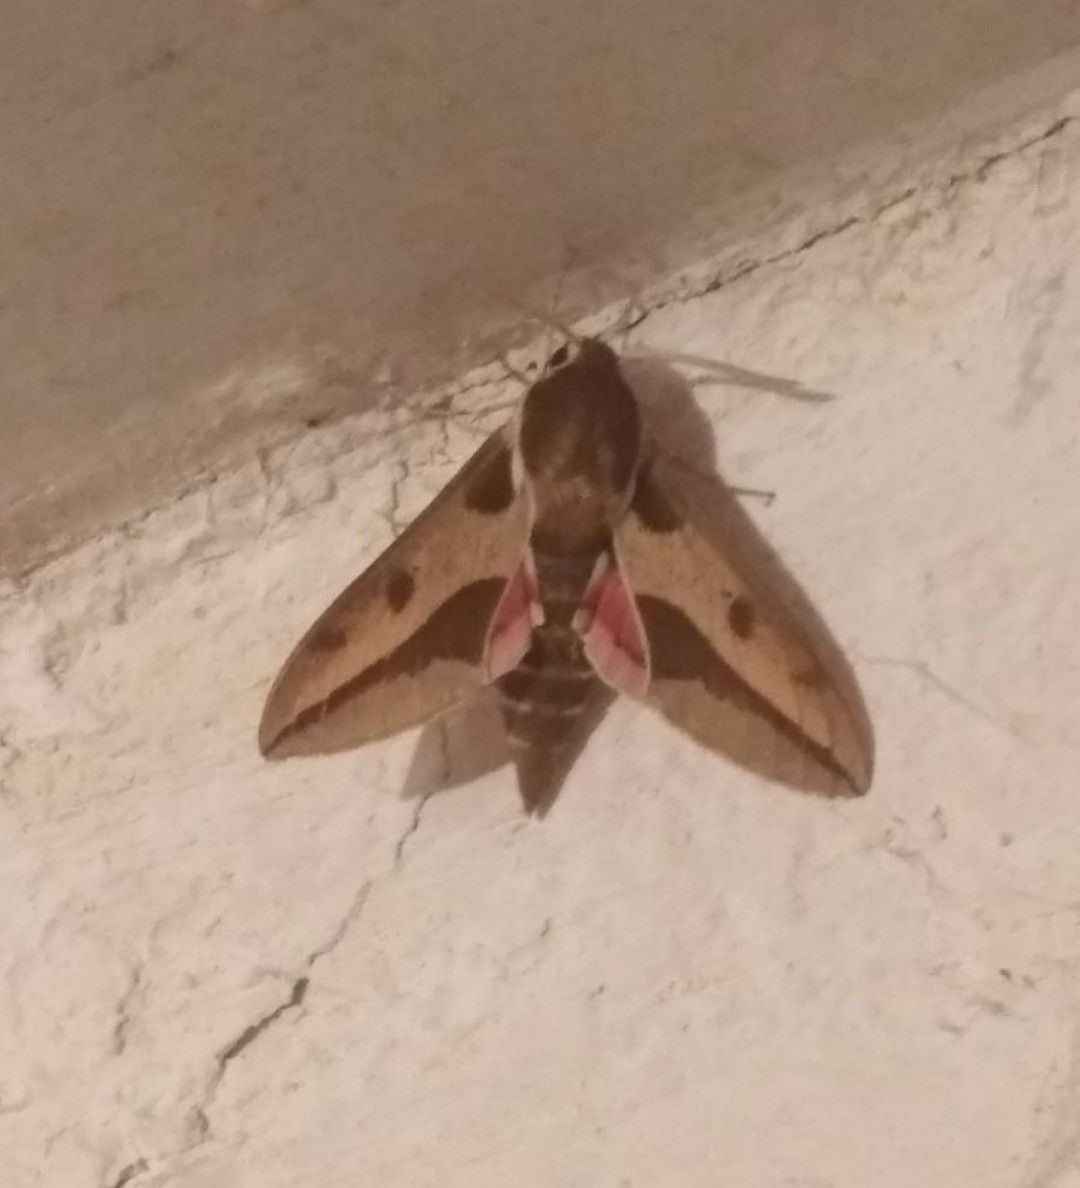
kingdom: Animalia
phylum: Arthropoda
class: Insecta
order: Lepidoptera
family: Sphingidae
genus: Hyles
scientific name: Hyles euphorbiae
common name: Spurge hawk-moth
